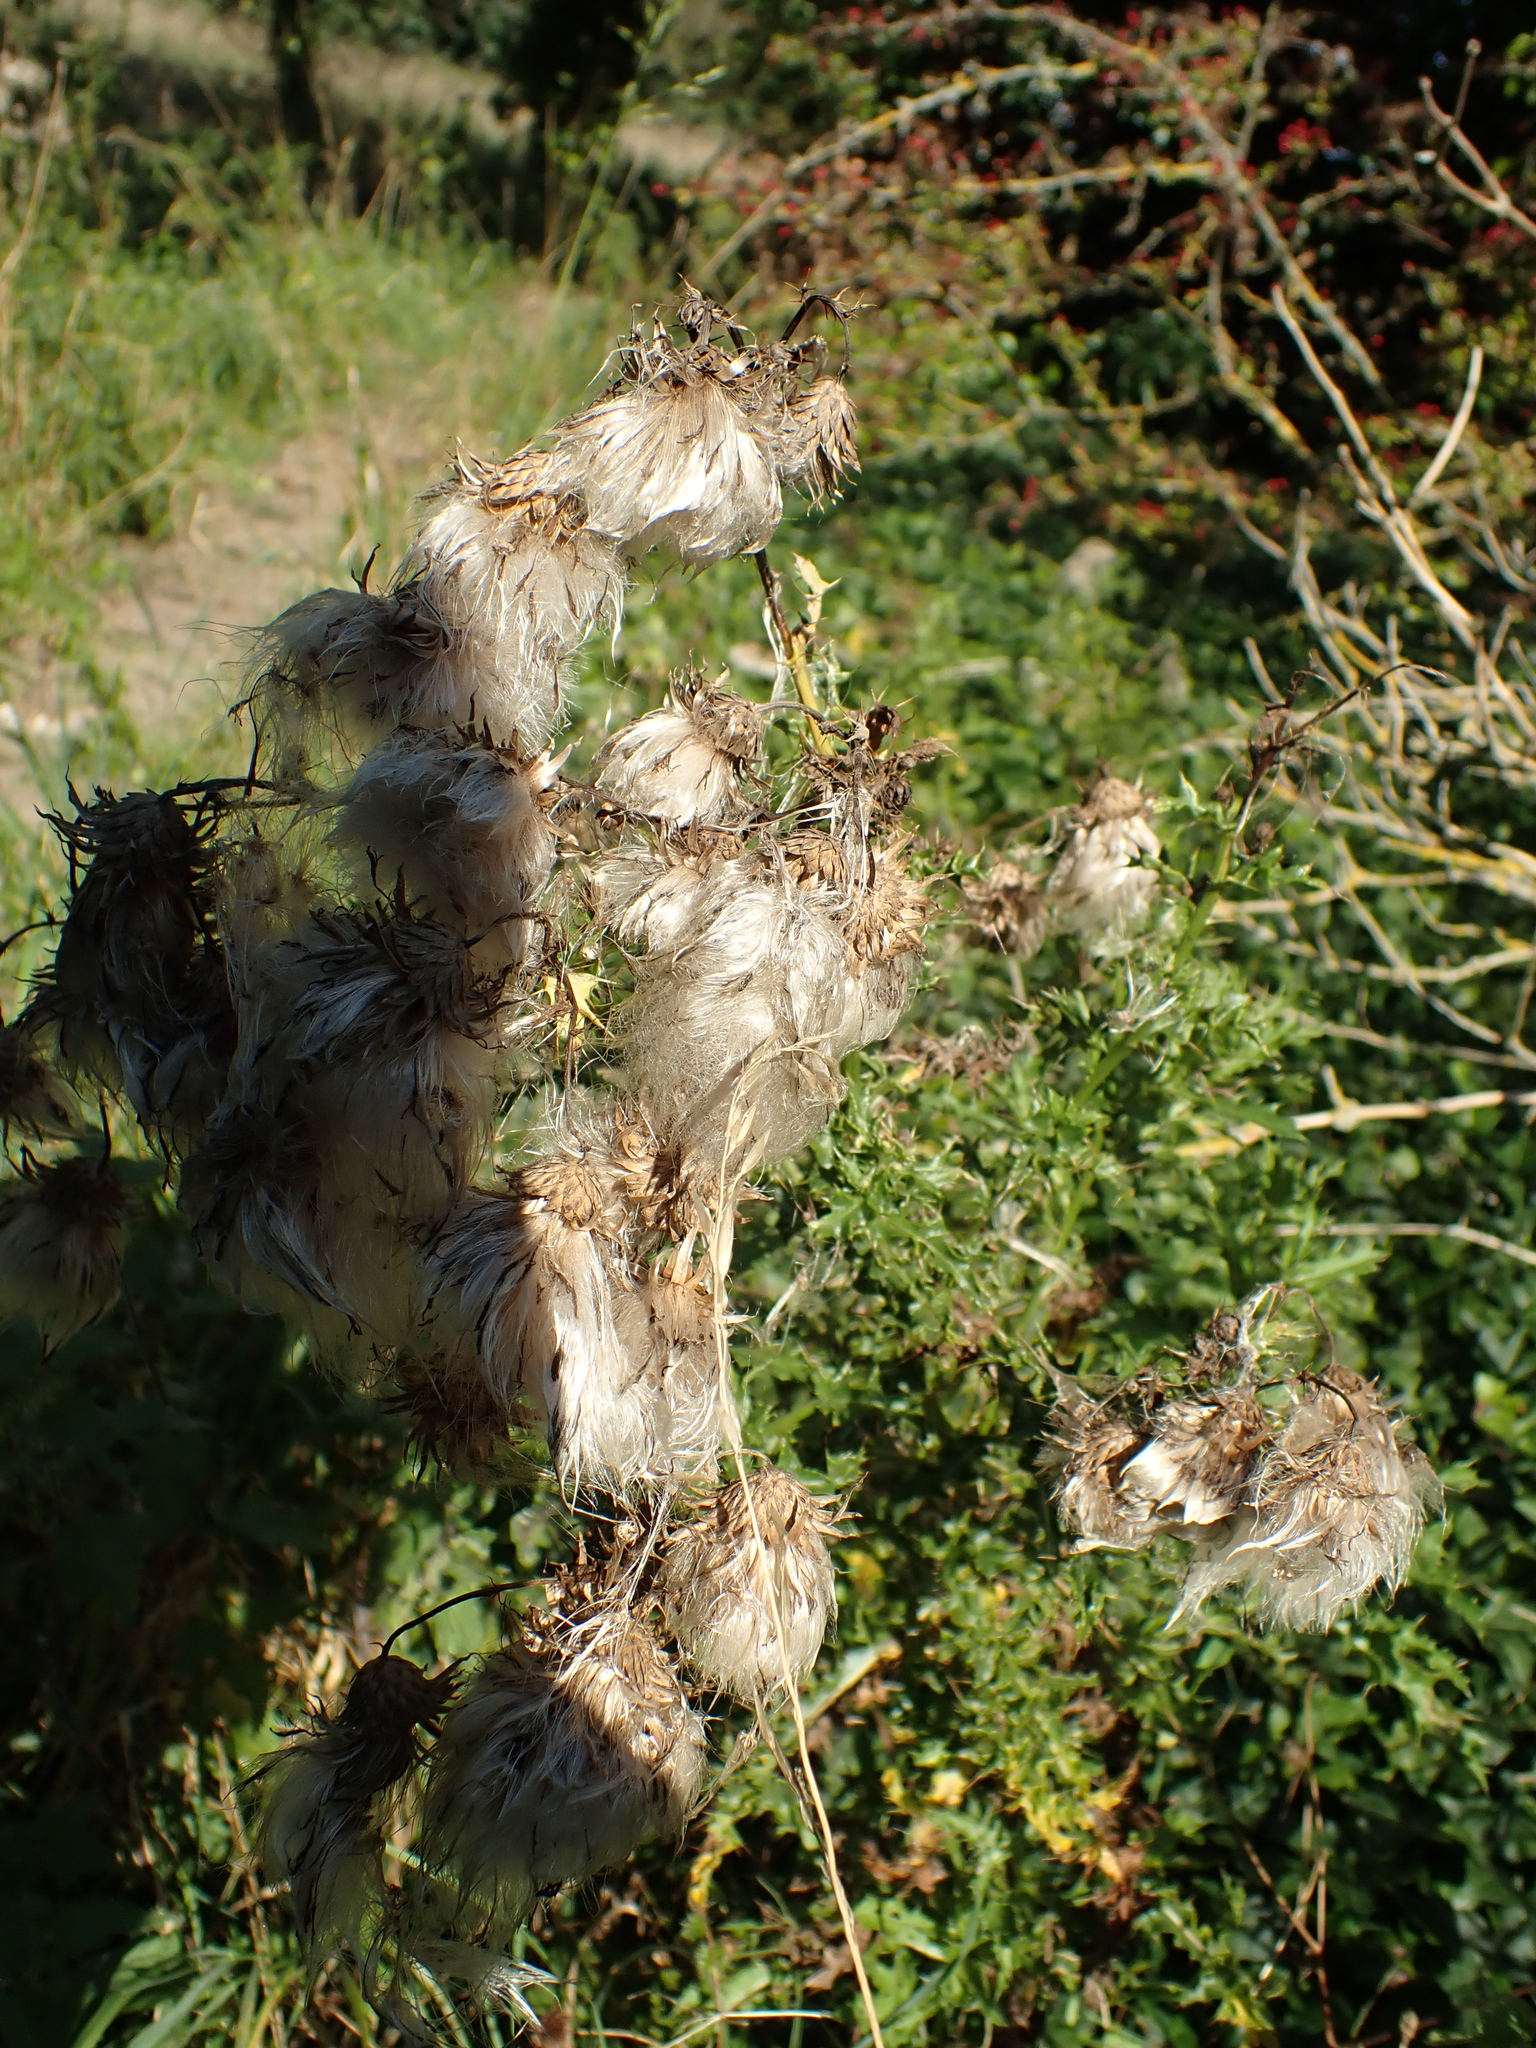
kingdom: Plantae
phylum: Tracheophyta
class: Magnoliopsida
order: Asterales
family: Asteraceae
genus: Cirsium
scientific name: Cirsium arvense
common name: Creeping thistle
